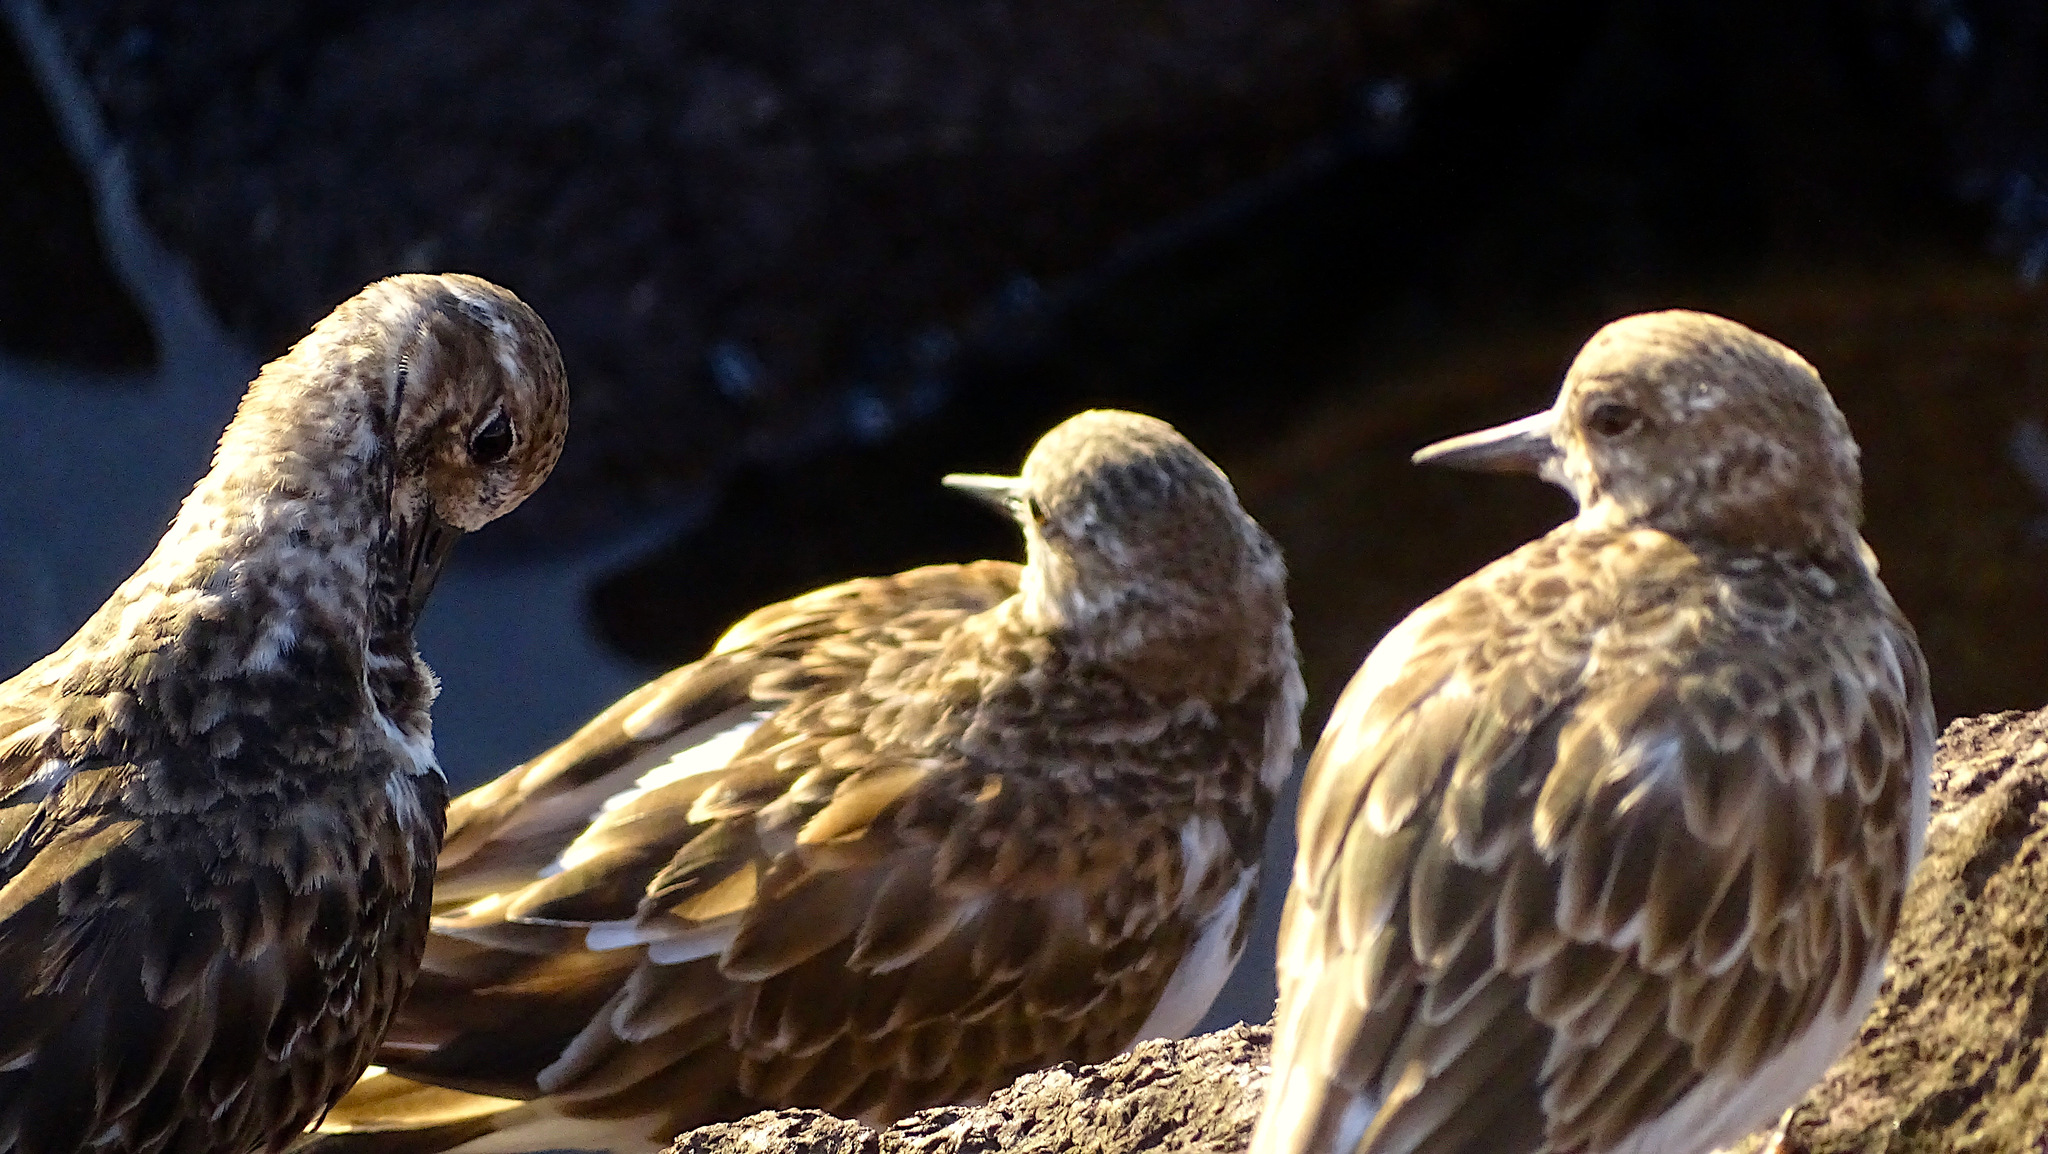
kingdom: Animalia
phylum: Chordata
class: Aves
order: Charadriiformes
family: Scolopacidae
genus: Arenaria
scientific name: Arenaria interpres
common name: Ruddy turnstone
